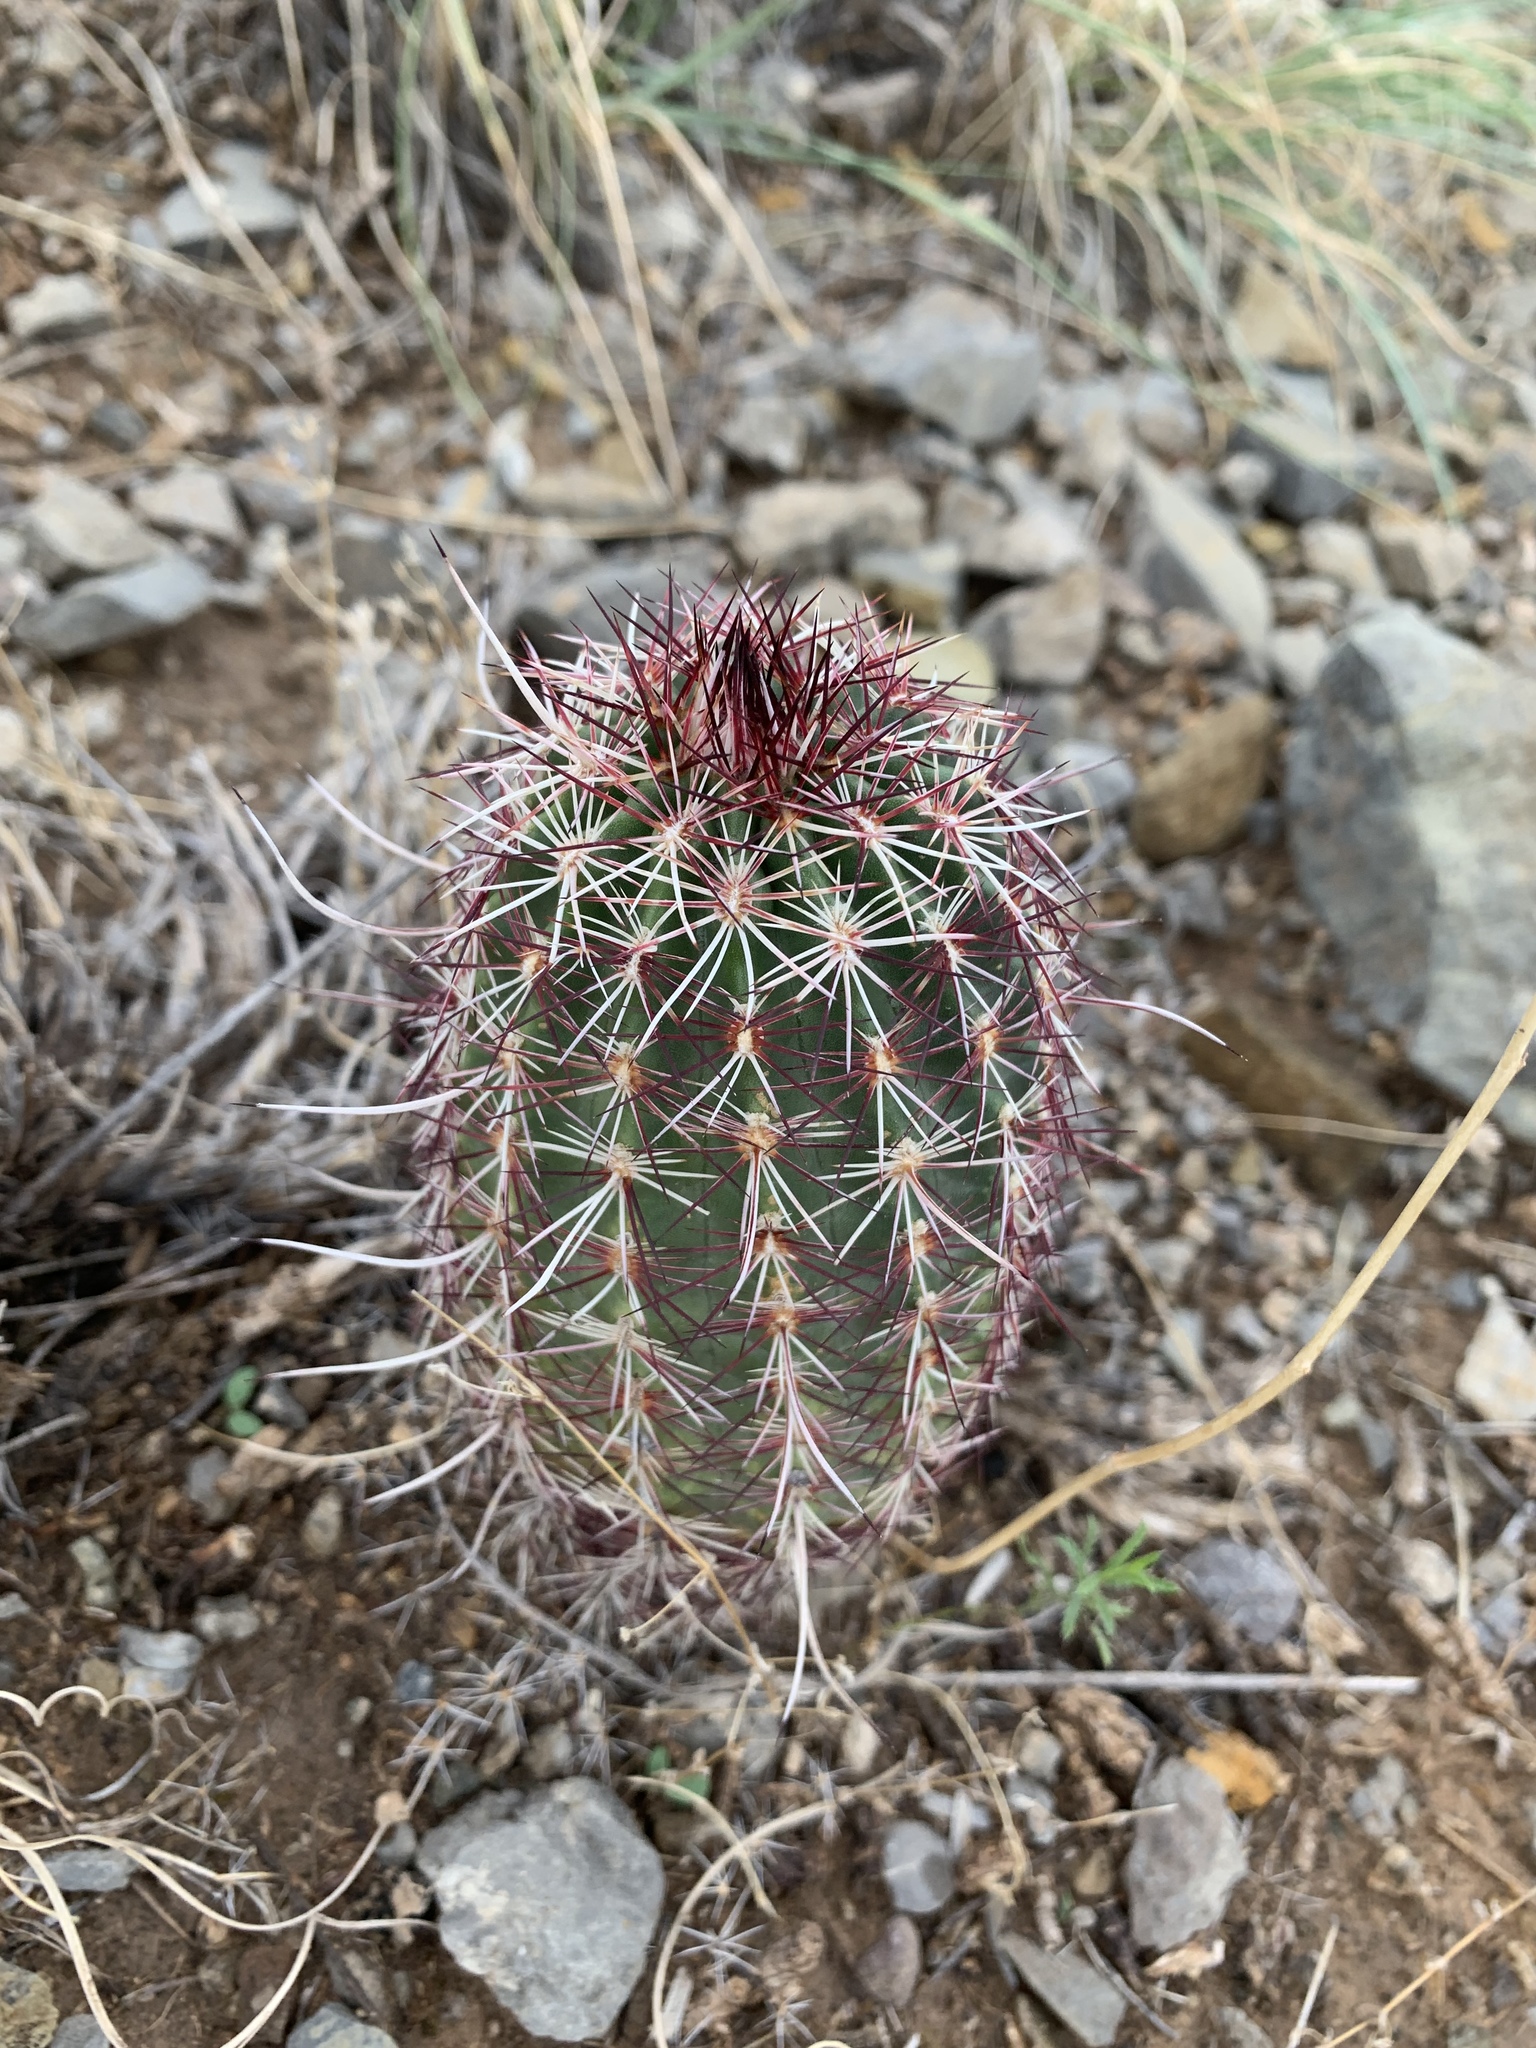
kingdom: Plantae
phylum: Tracheophyta
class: Magnoliopsida
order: Caryophyllales
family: Cactaceae
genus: Echinocereus
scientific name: Echinocereus viridiflorus
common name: Nylon hedgehog cactus
